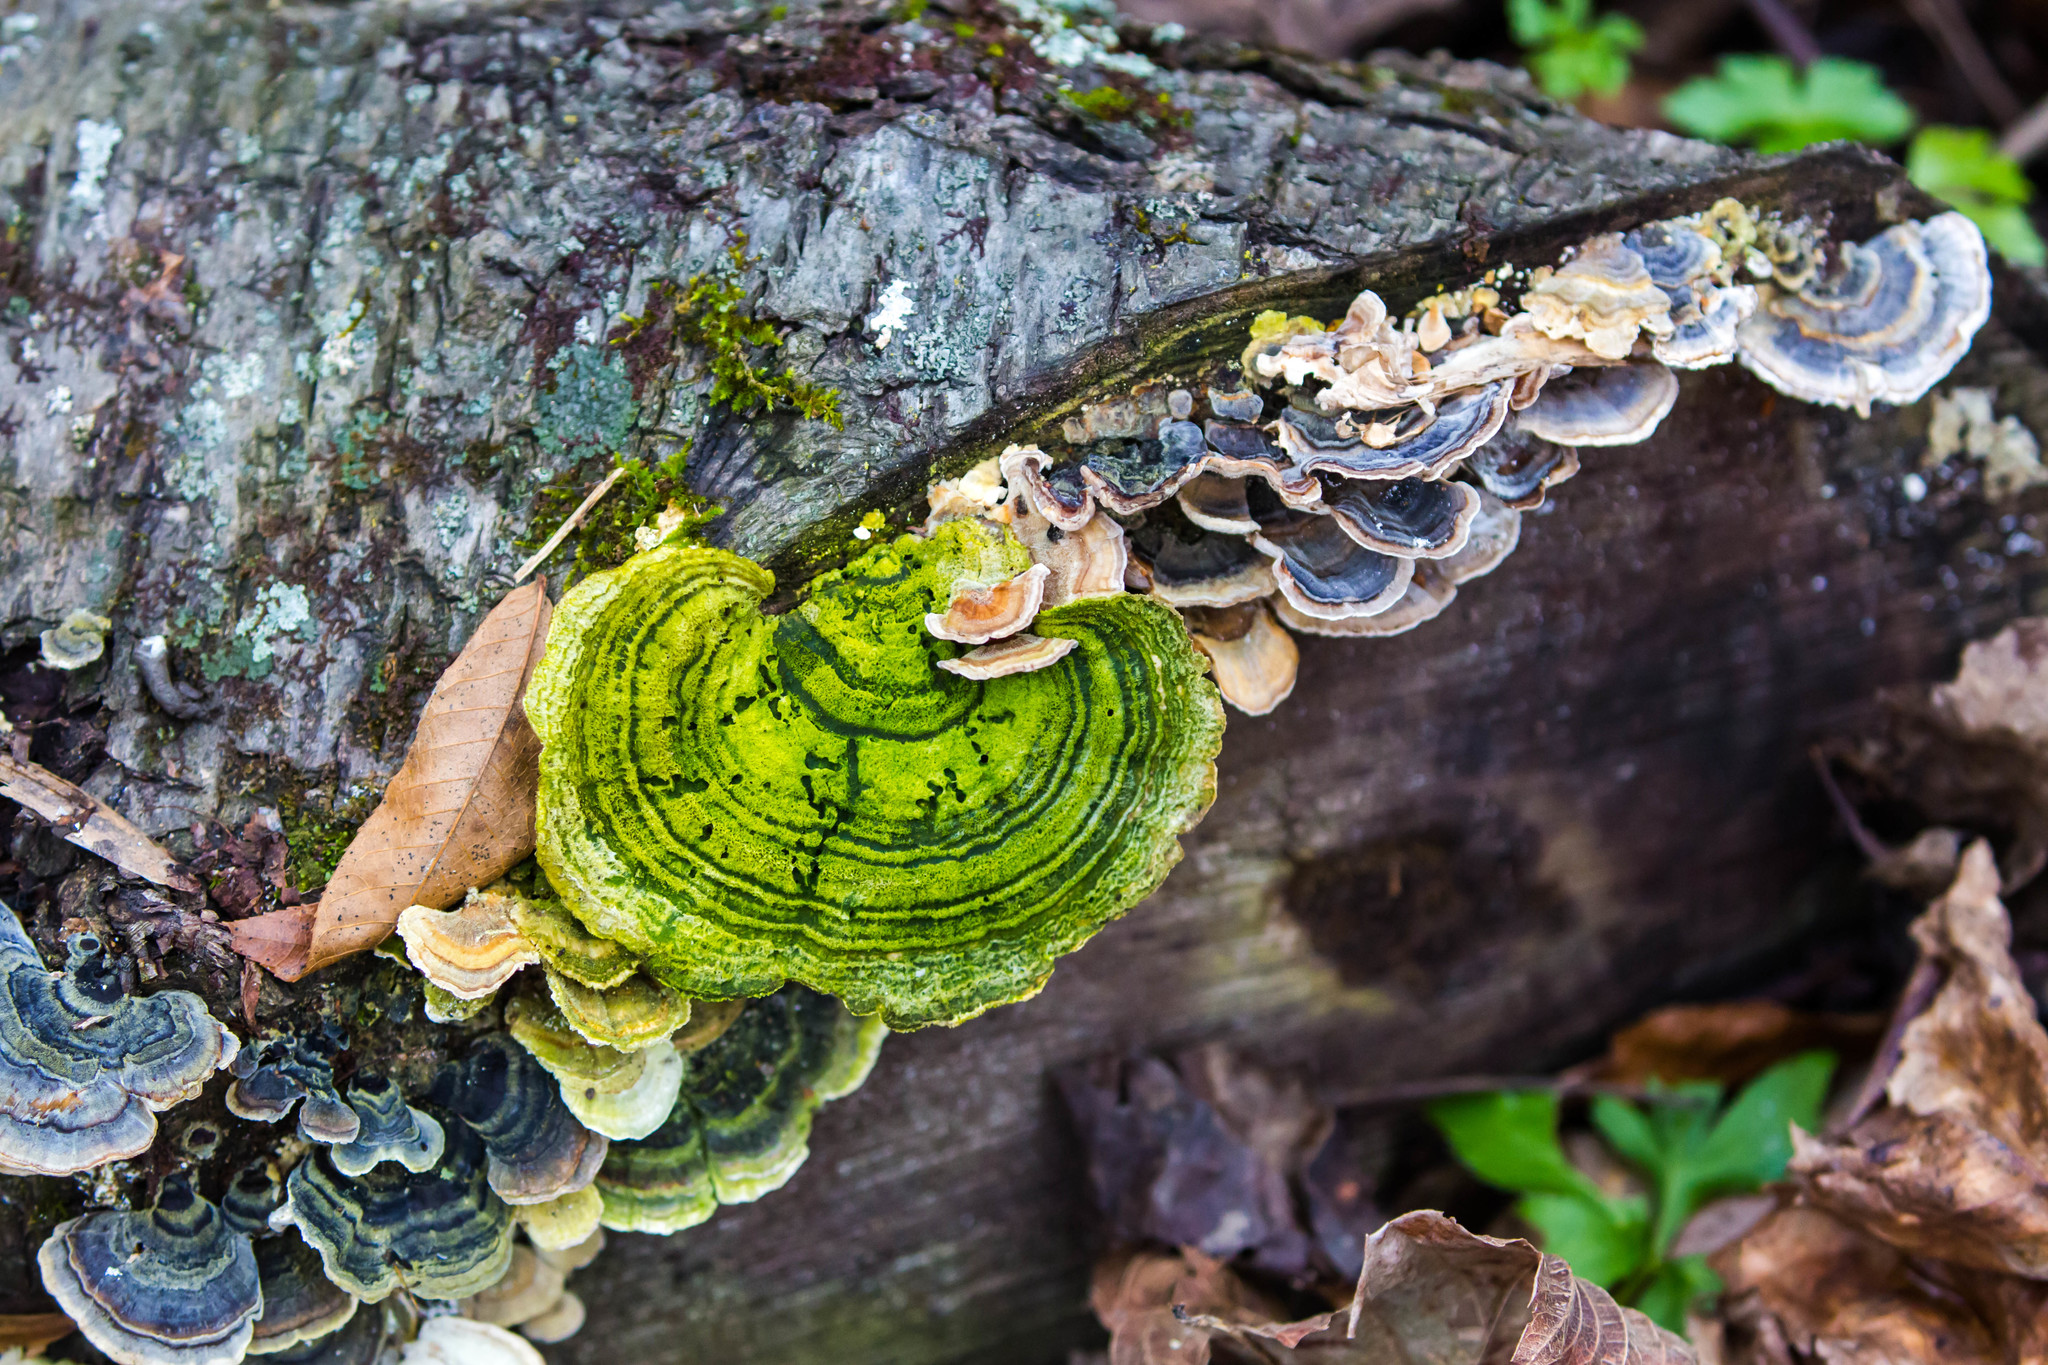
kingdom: Fungi
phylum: Basidiomycota
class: Agaricomycetes
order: Polyporales
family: Polyporaceae
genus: Trametes
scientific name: Trametes versicolor
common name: Turkeytail
